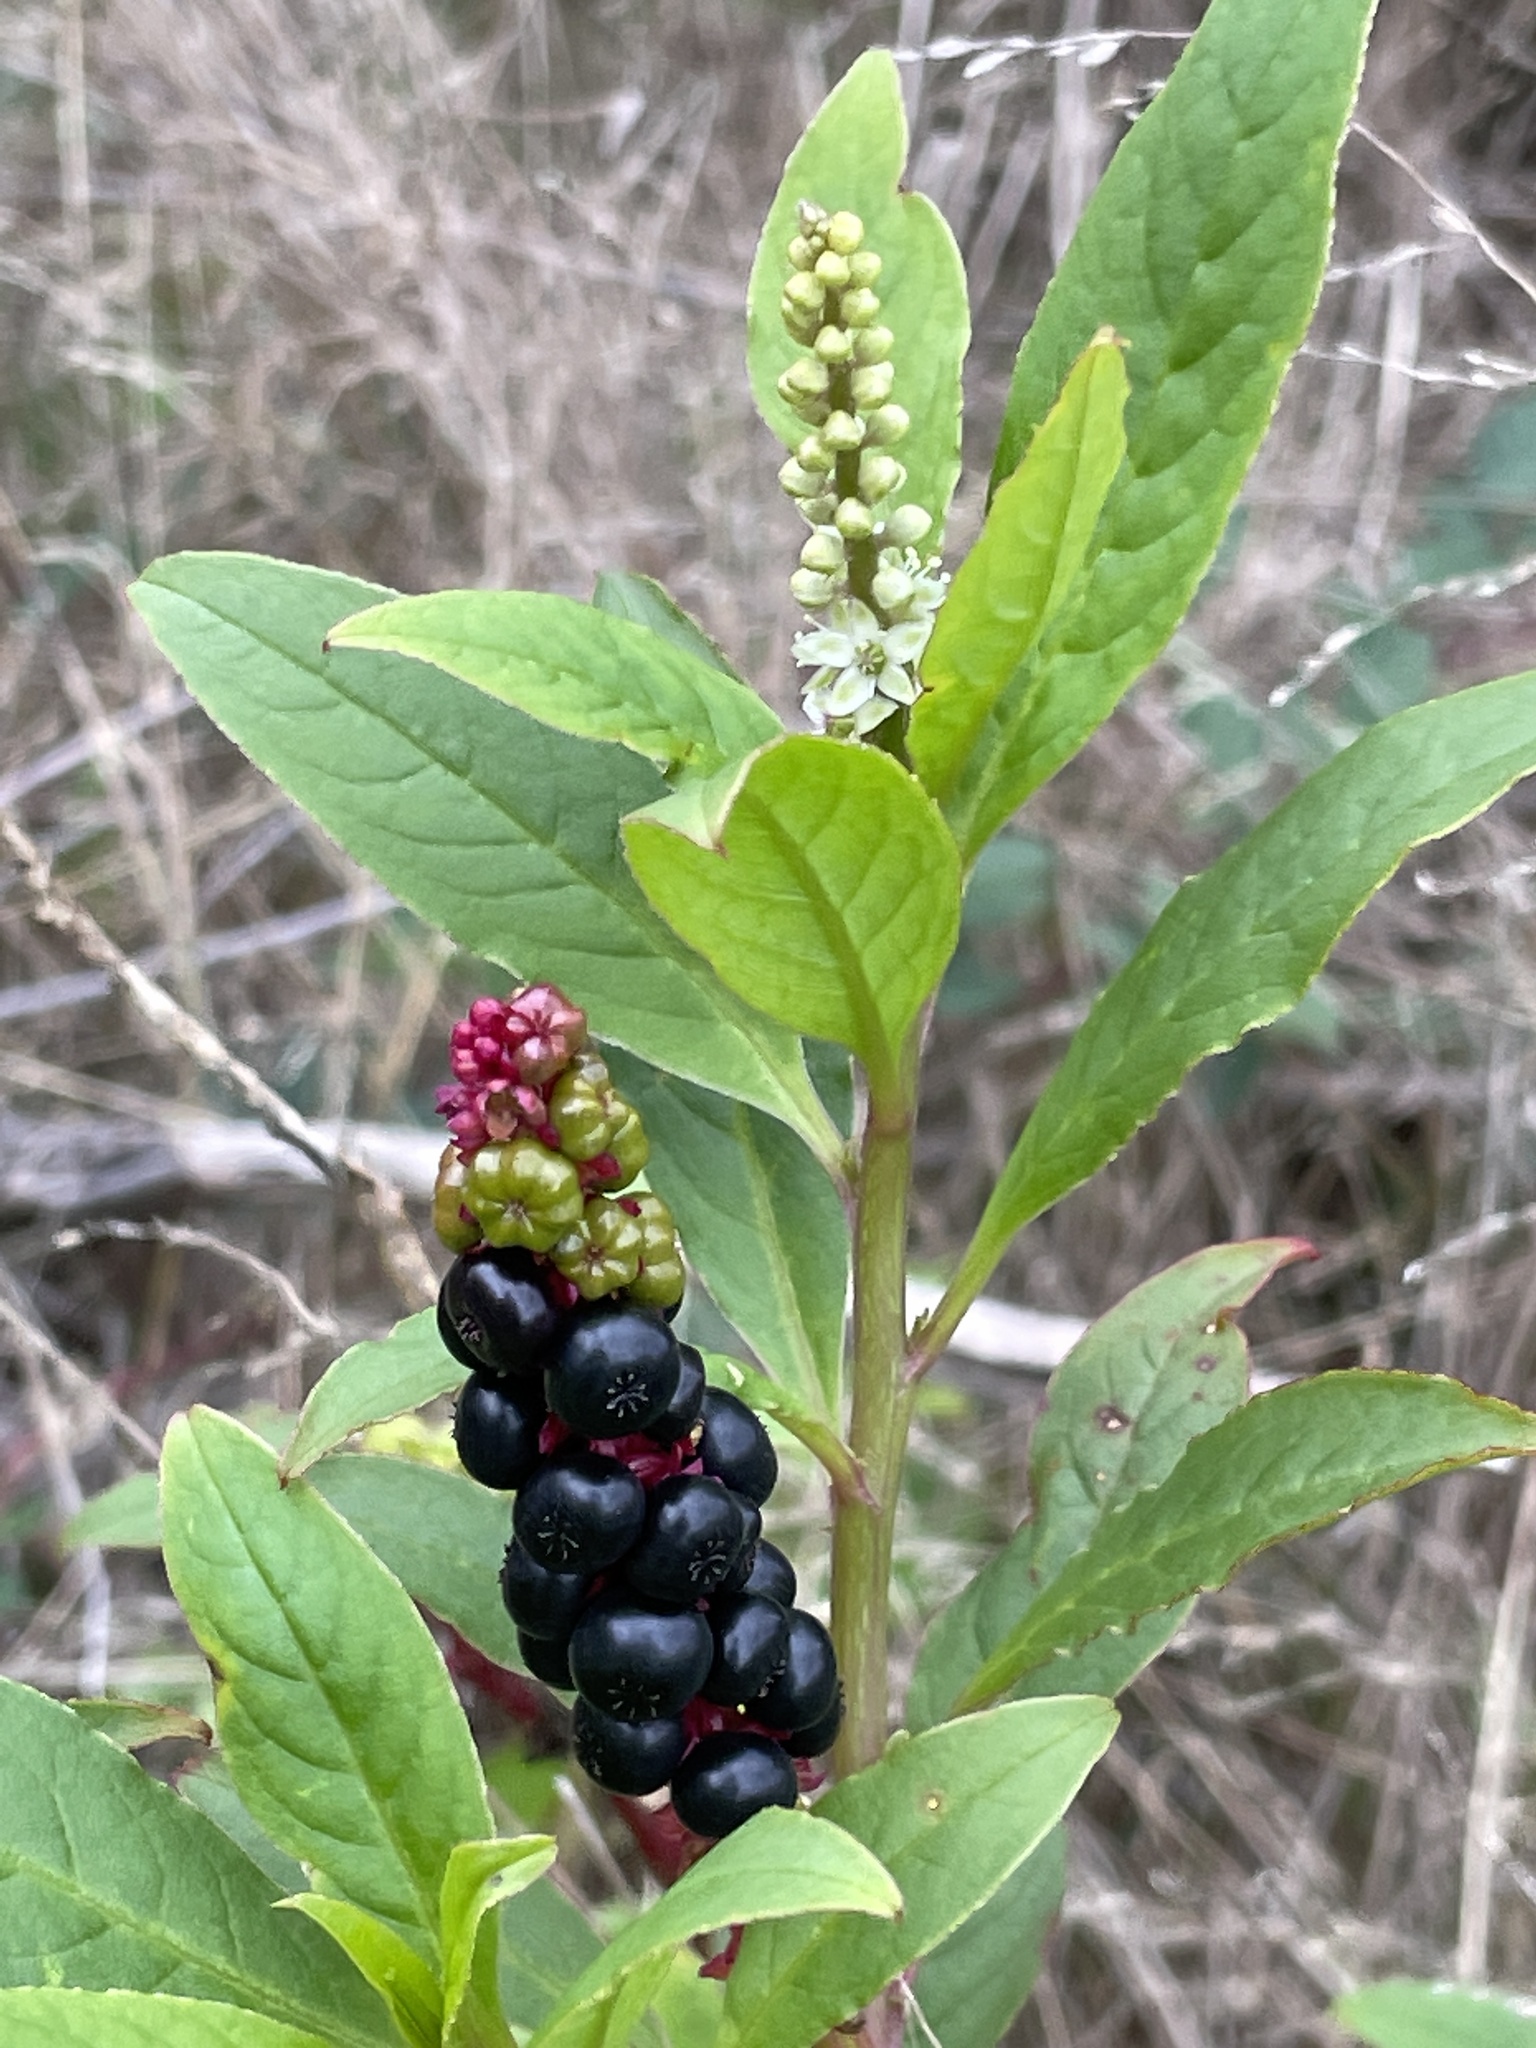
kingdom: Plantae
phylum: Tracheophyta
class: Magnoliopsida
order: Caryophyllales
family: Phytolaccaceae
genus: Phytolacca
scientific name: Phytolacca icosandra
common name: Button pokeweed
